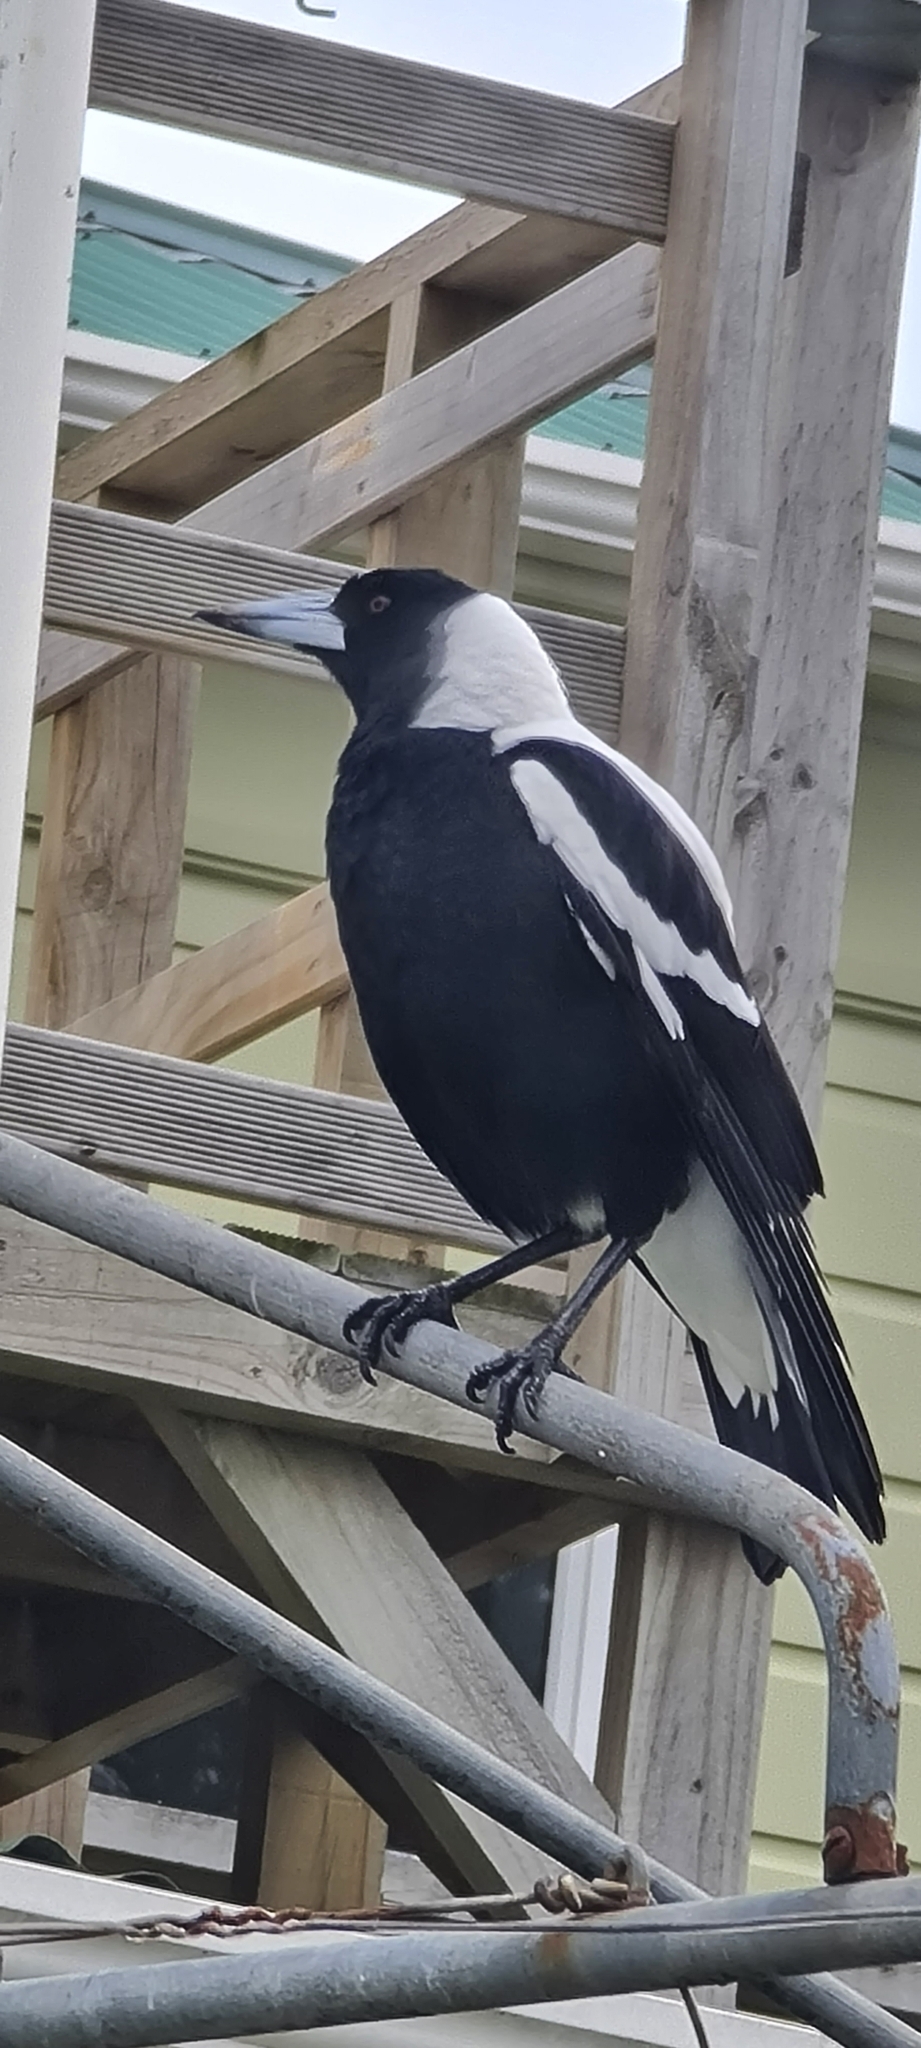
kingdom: Animalia
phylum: Chordata
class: Aves
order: Passeriformes
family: Cracticidae
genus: Gymnorhina
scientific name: Gymnorhina tibicen
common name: Australian magpie
